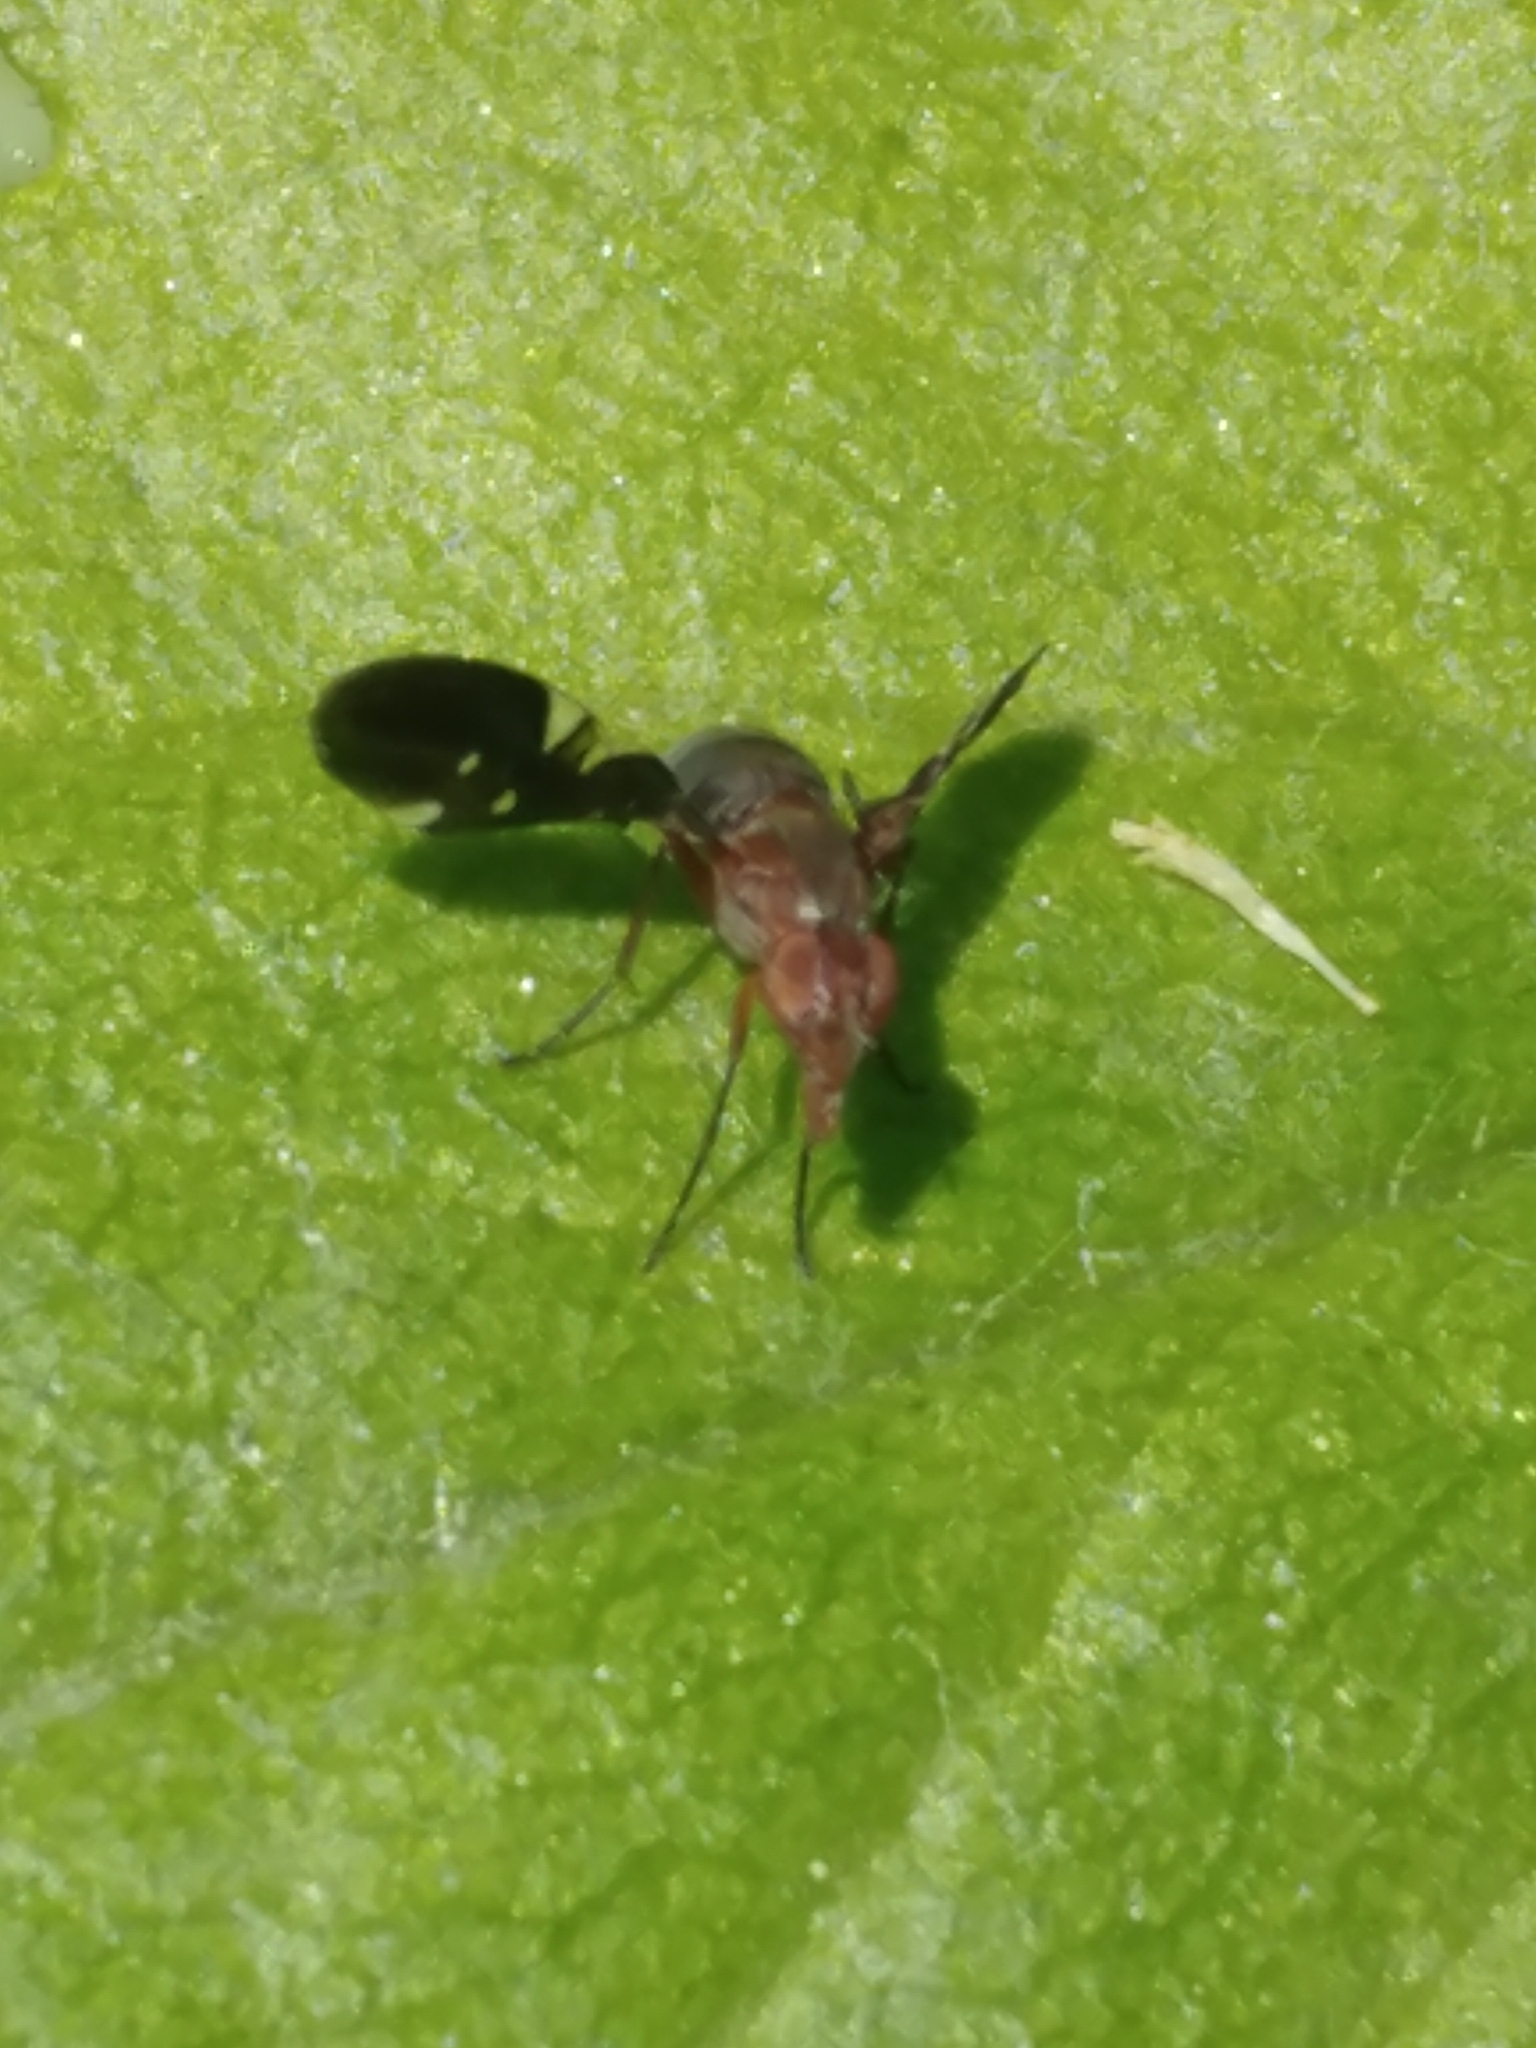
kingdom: Animalia
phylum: Arthropoda
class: Insecta
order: Diptera
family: Ulidiidae
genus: Delphinia
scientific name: Delphinia picta
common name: Common picture-winged fly
